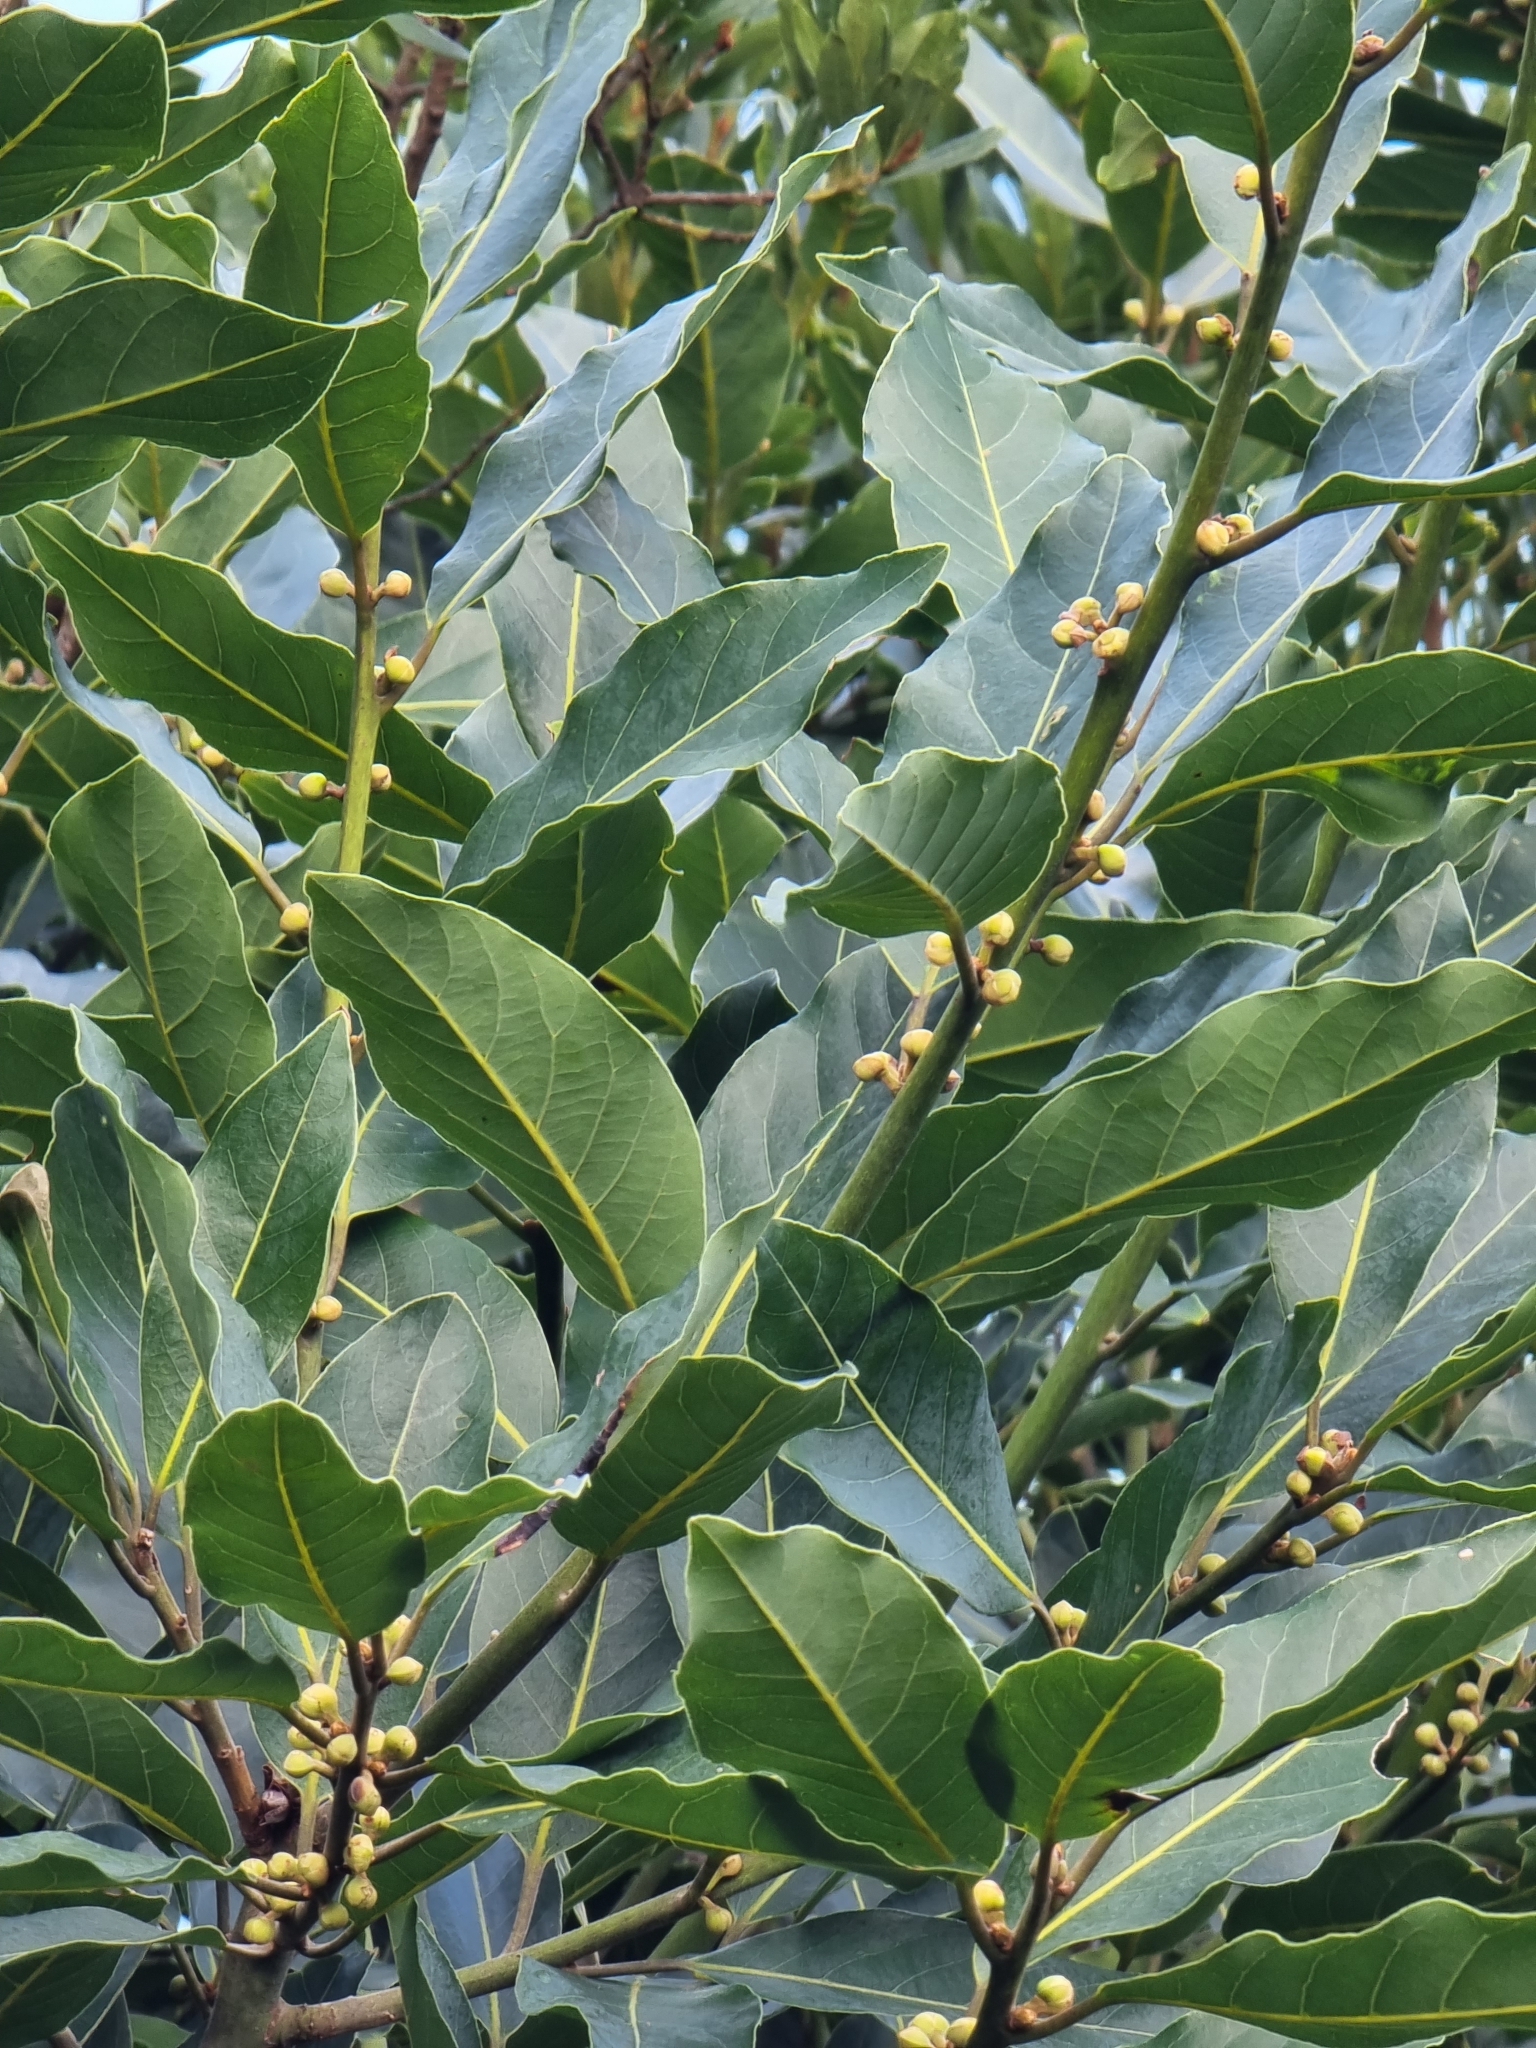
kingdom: Plantae
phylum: Tracheophyta
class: Magnoliopsida
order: Laurales
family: Lauraceae
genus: Laurus
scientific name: Laurus novocanariensis
